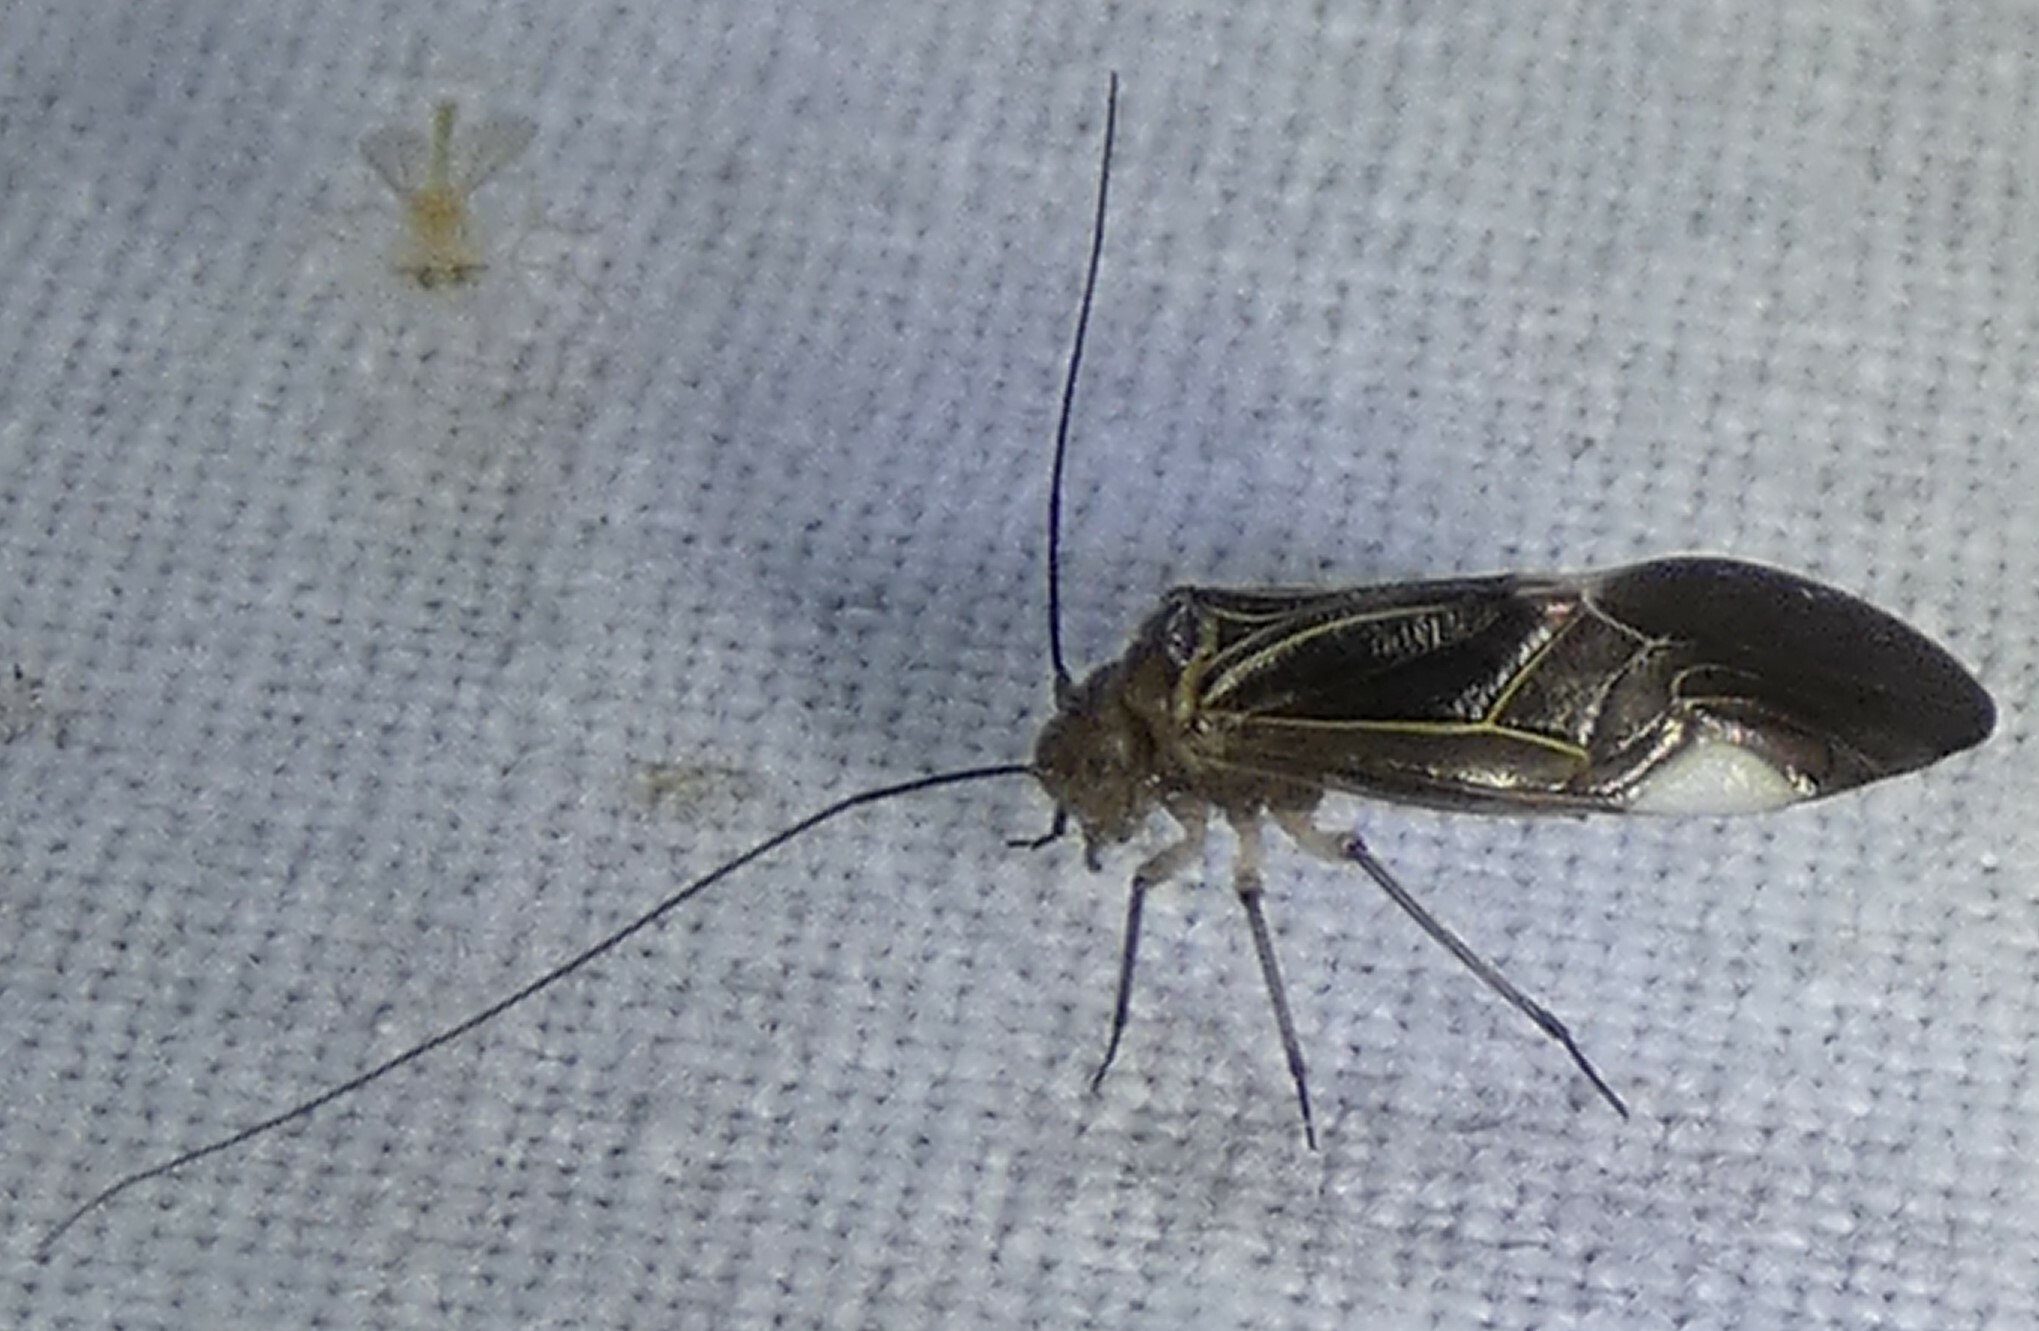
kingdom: Animalia
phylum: Arthropoda
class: Insecta
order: Psocodea
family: Psocidae
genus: Cerastipsocus
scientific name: Cerastipsocus venosus
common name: Tree cattle
